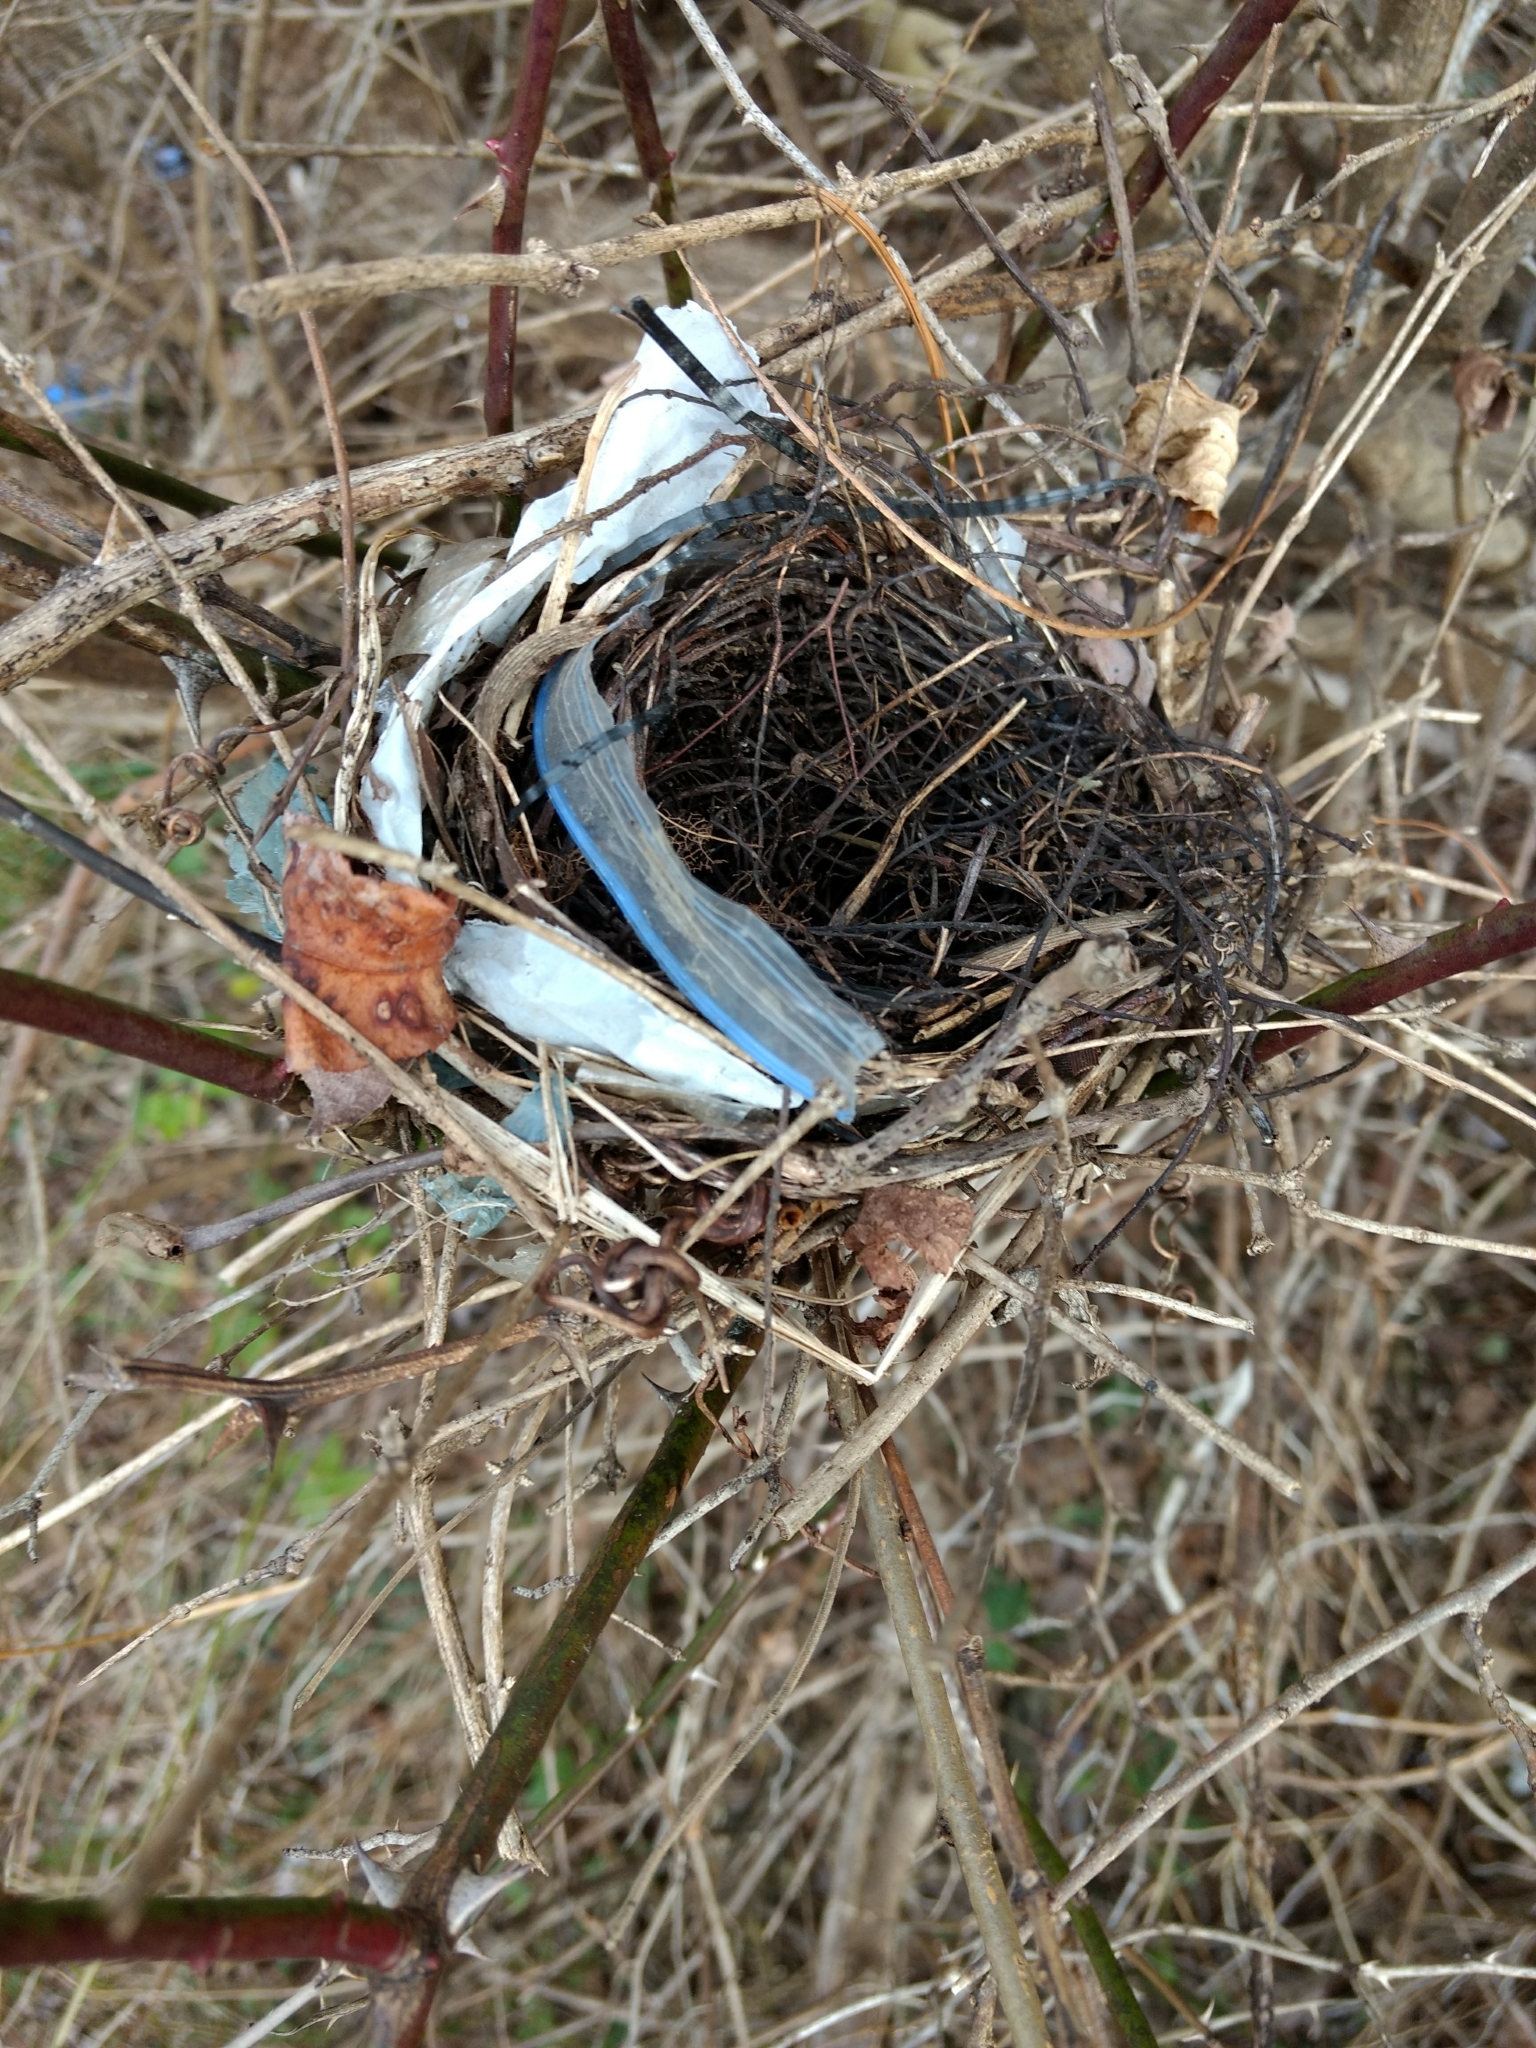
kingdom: Animalia
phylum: Chordata
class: Aves
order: Passeriformes
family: Cardinalidae
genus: Cardinalis
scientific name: Cardinalis cardinalis
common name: Northern cardinal
